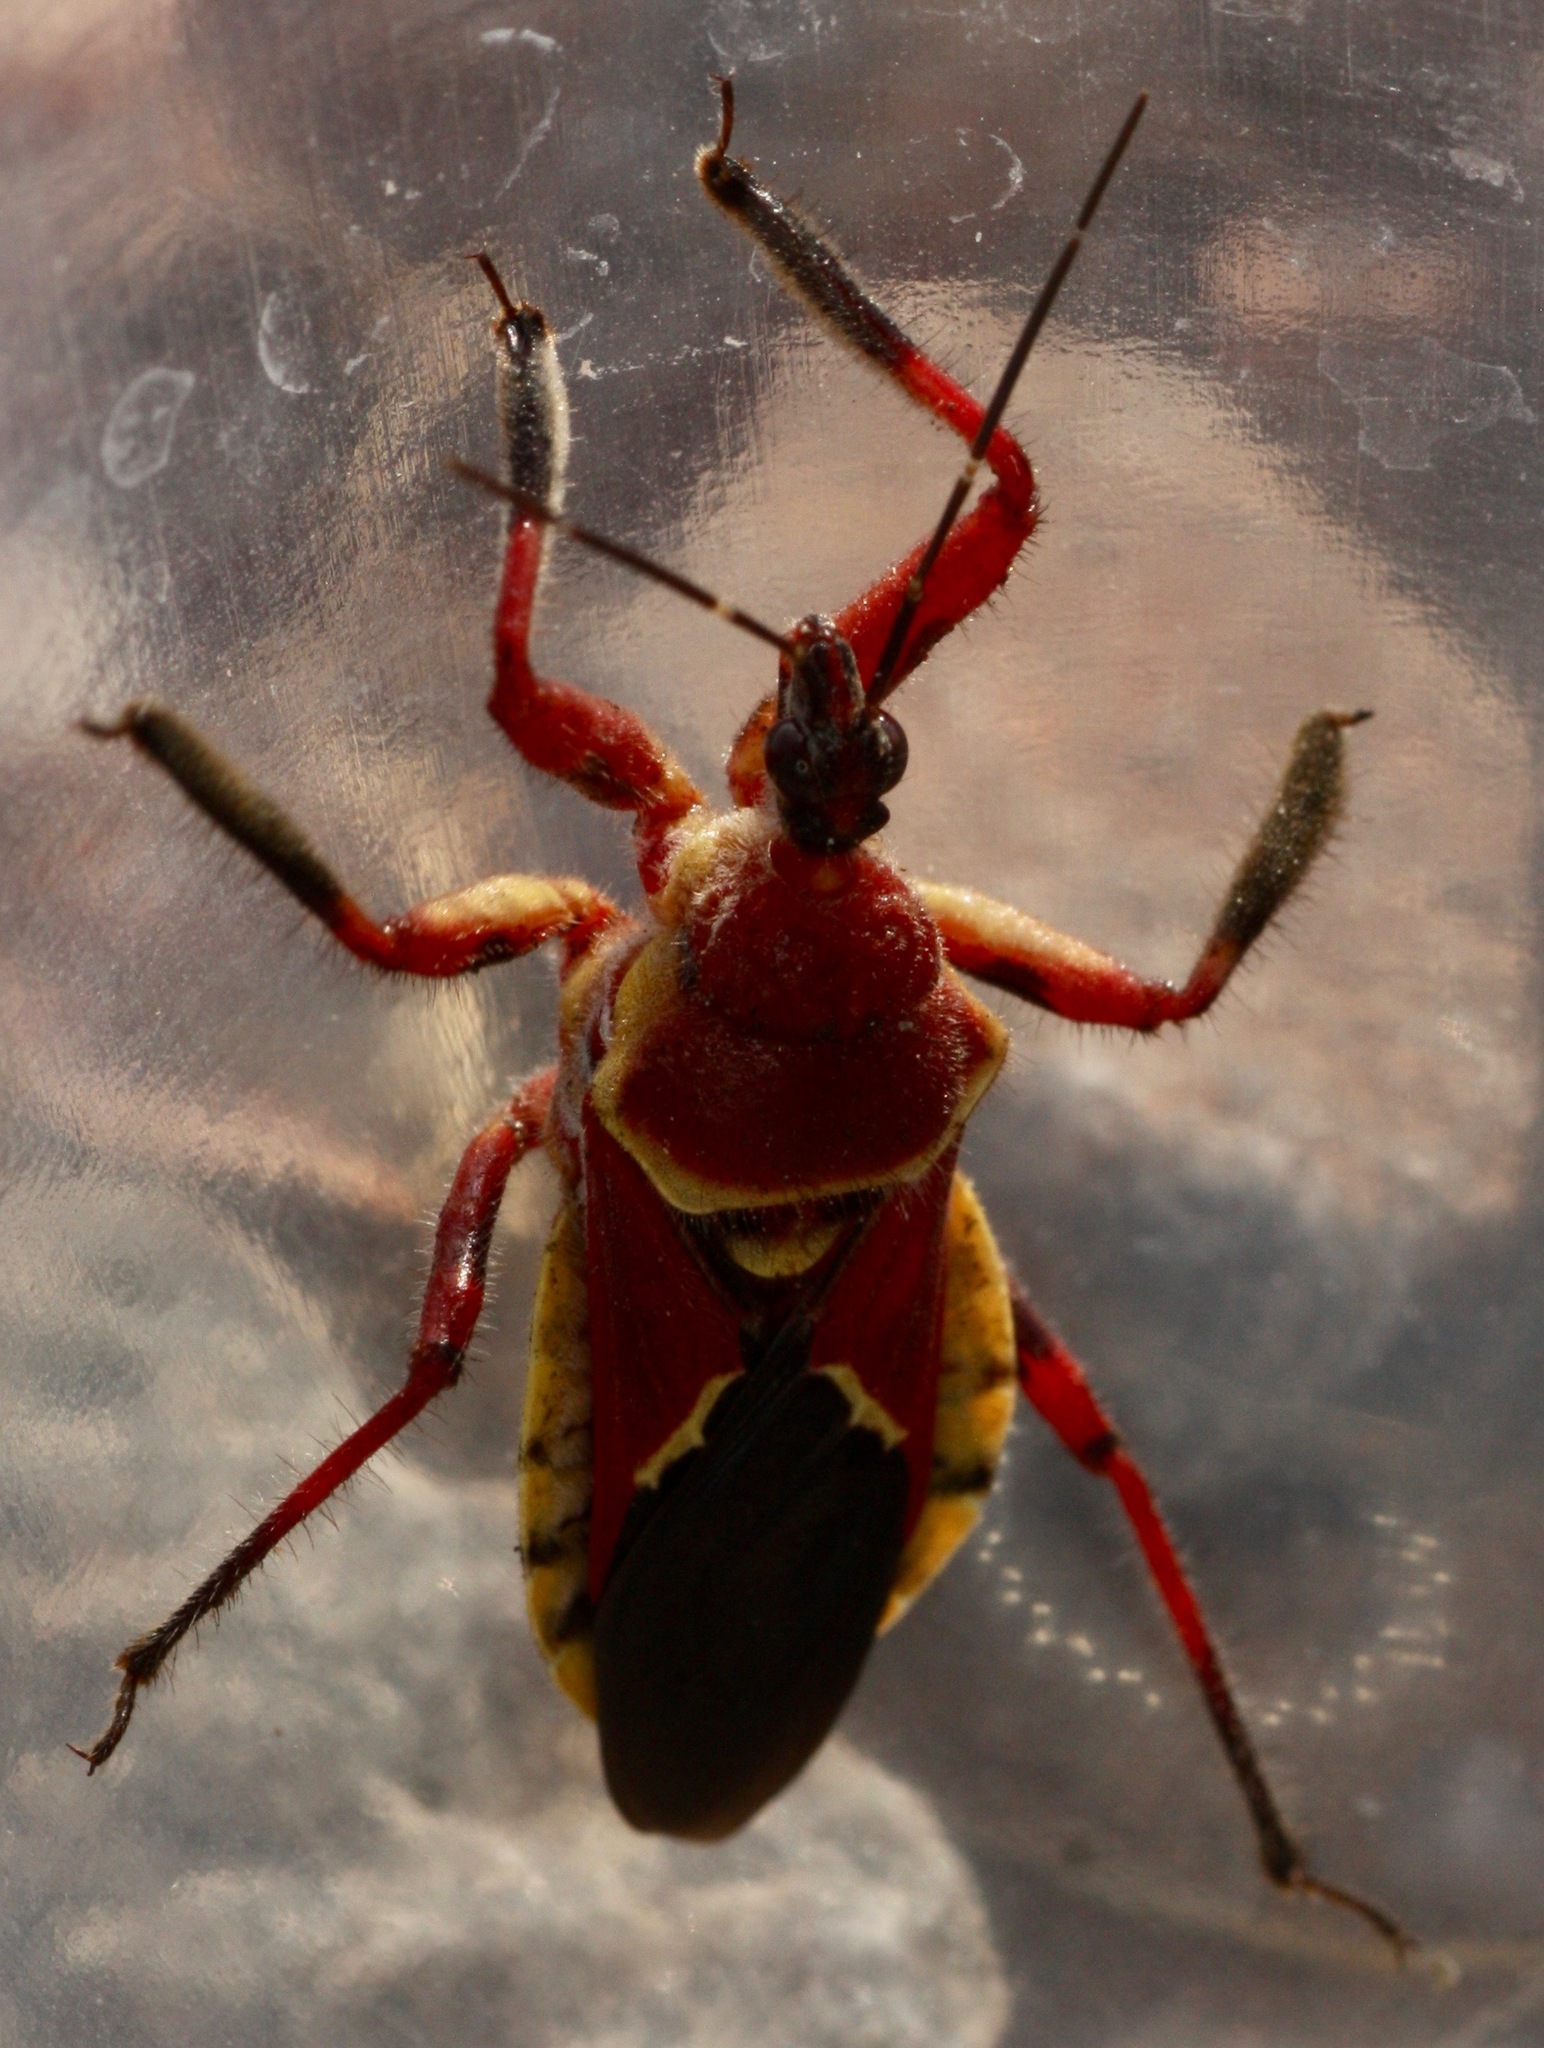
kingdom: Animalia
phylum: Arthropoda
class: Insecta
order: Hemiptera
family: Reduviidae
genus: Apiomerus
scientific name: Apiomerus flaviventris
